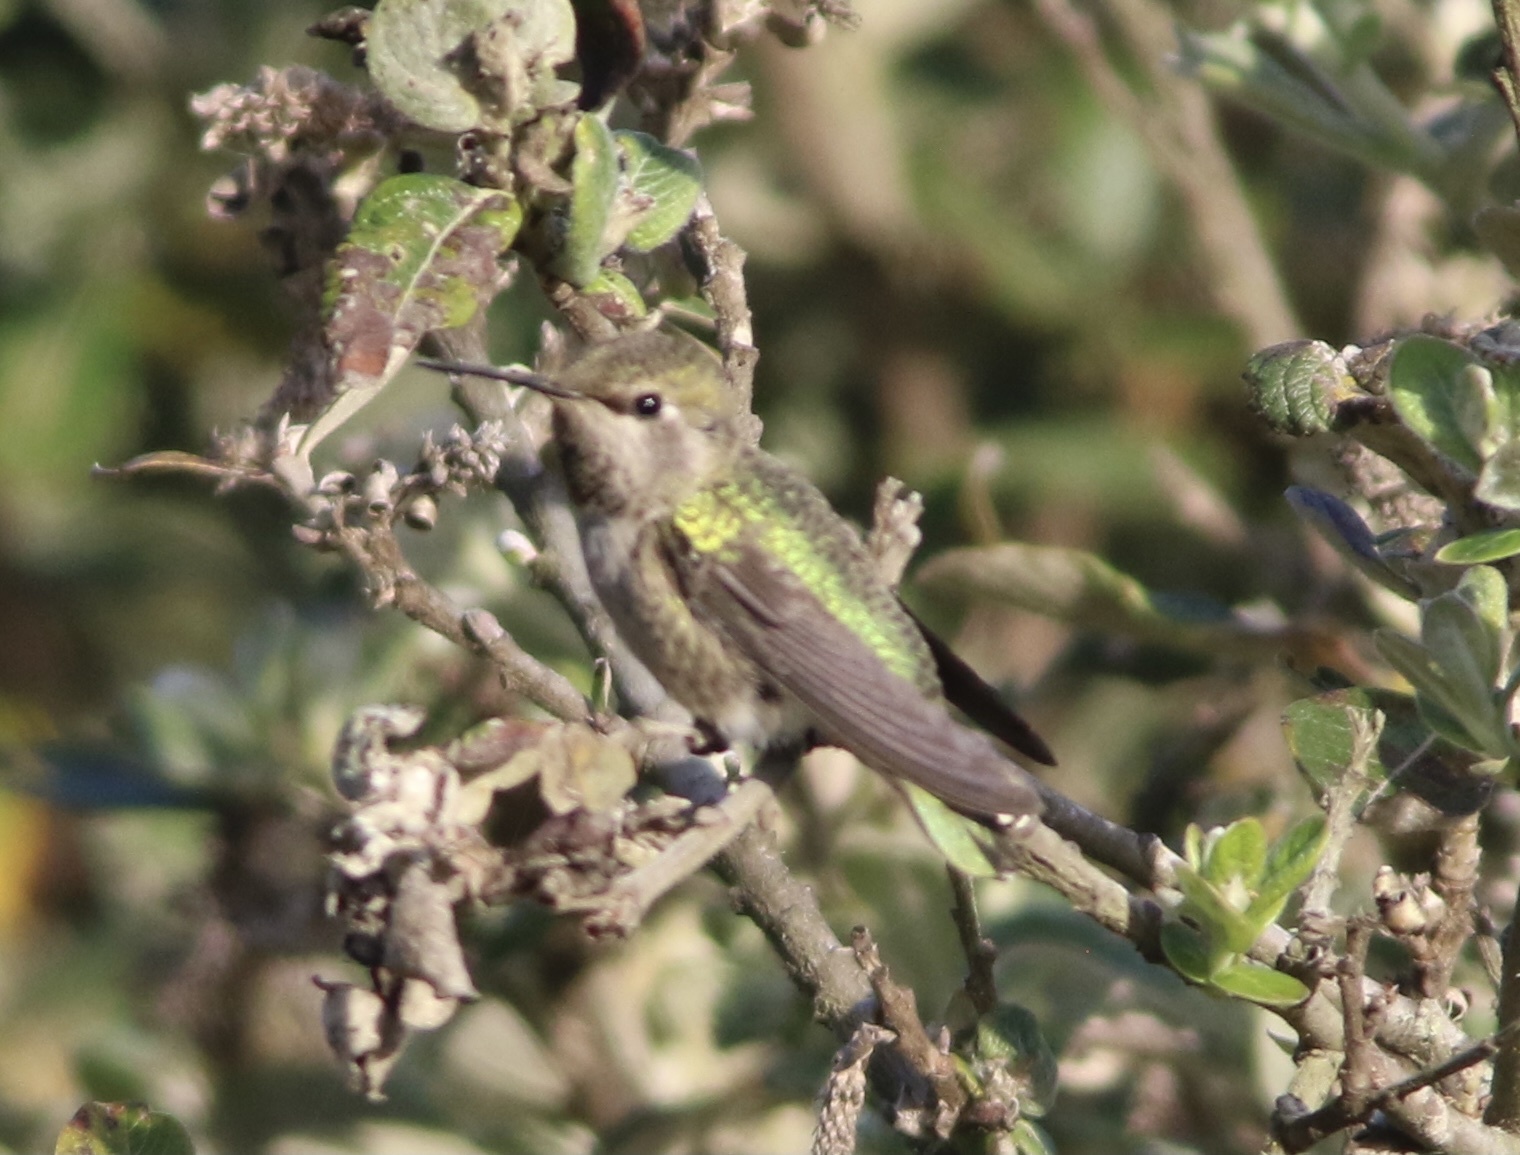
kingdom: Animalia
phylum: Chordata
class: Aves
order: Apodiformes
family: Trochilidae
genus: Calypte
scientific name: Calypte anna
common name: Anna's hummingbird
